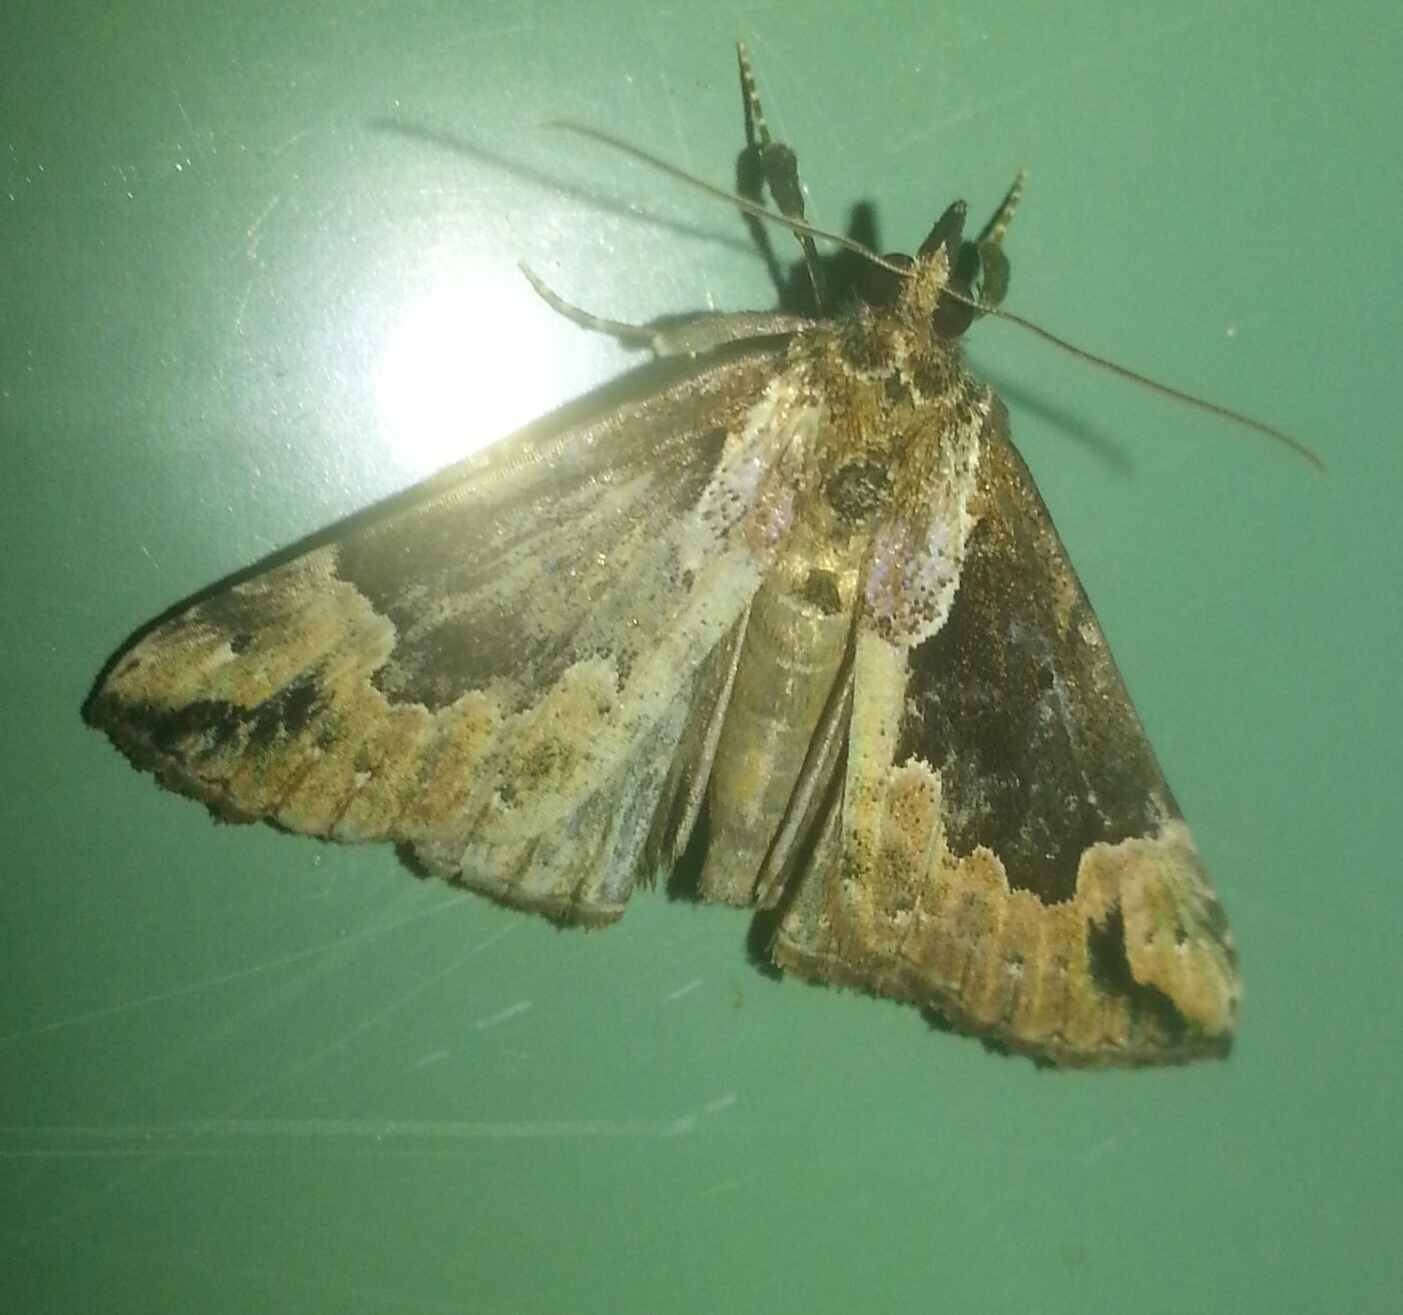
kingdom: Animalia
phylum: Arthropoda
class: Insecta
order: Lepidoptera
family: Erebidae
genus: Hypena
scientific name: Hypena baltimoralis
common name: Baltimore snout
